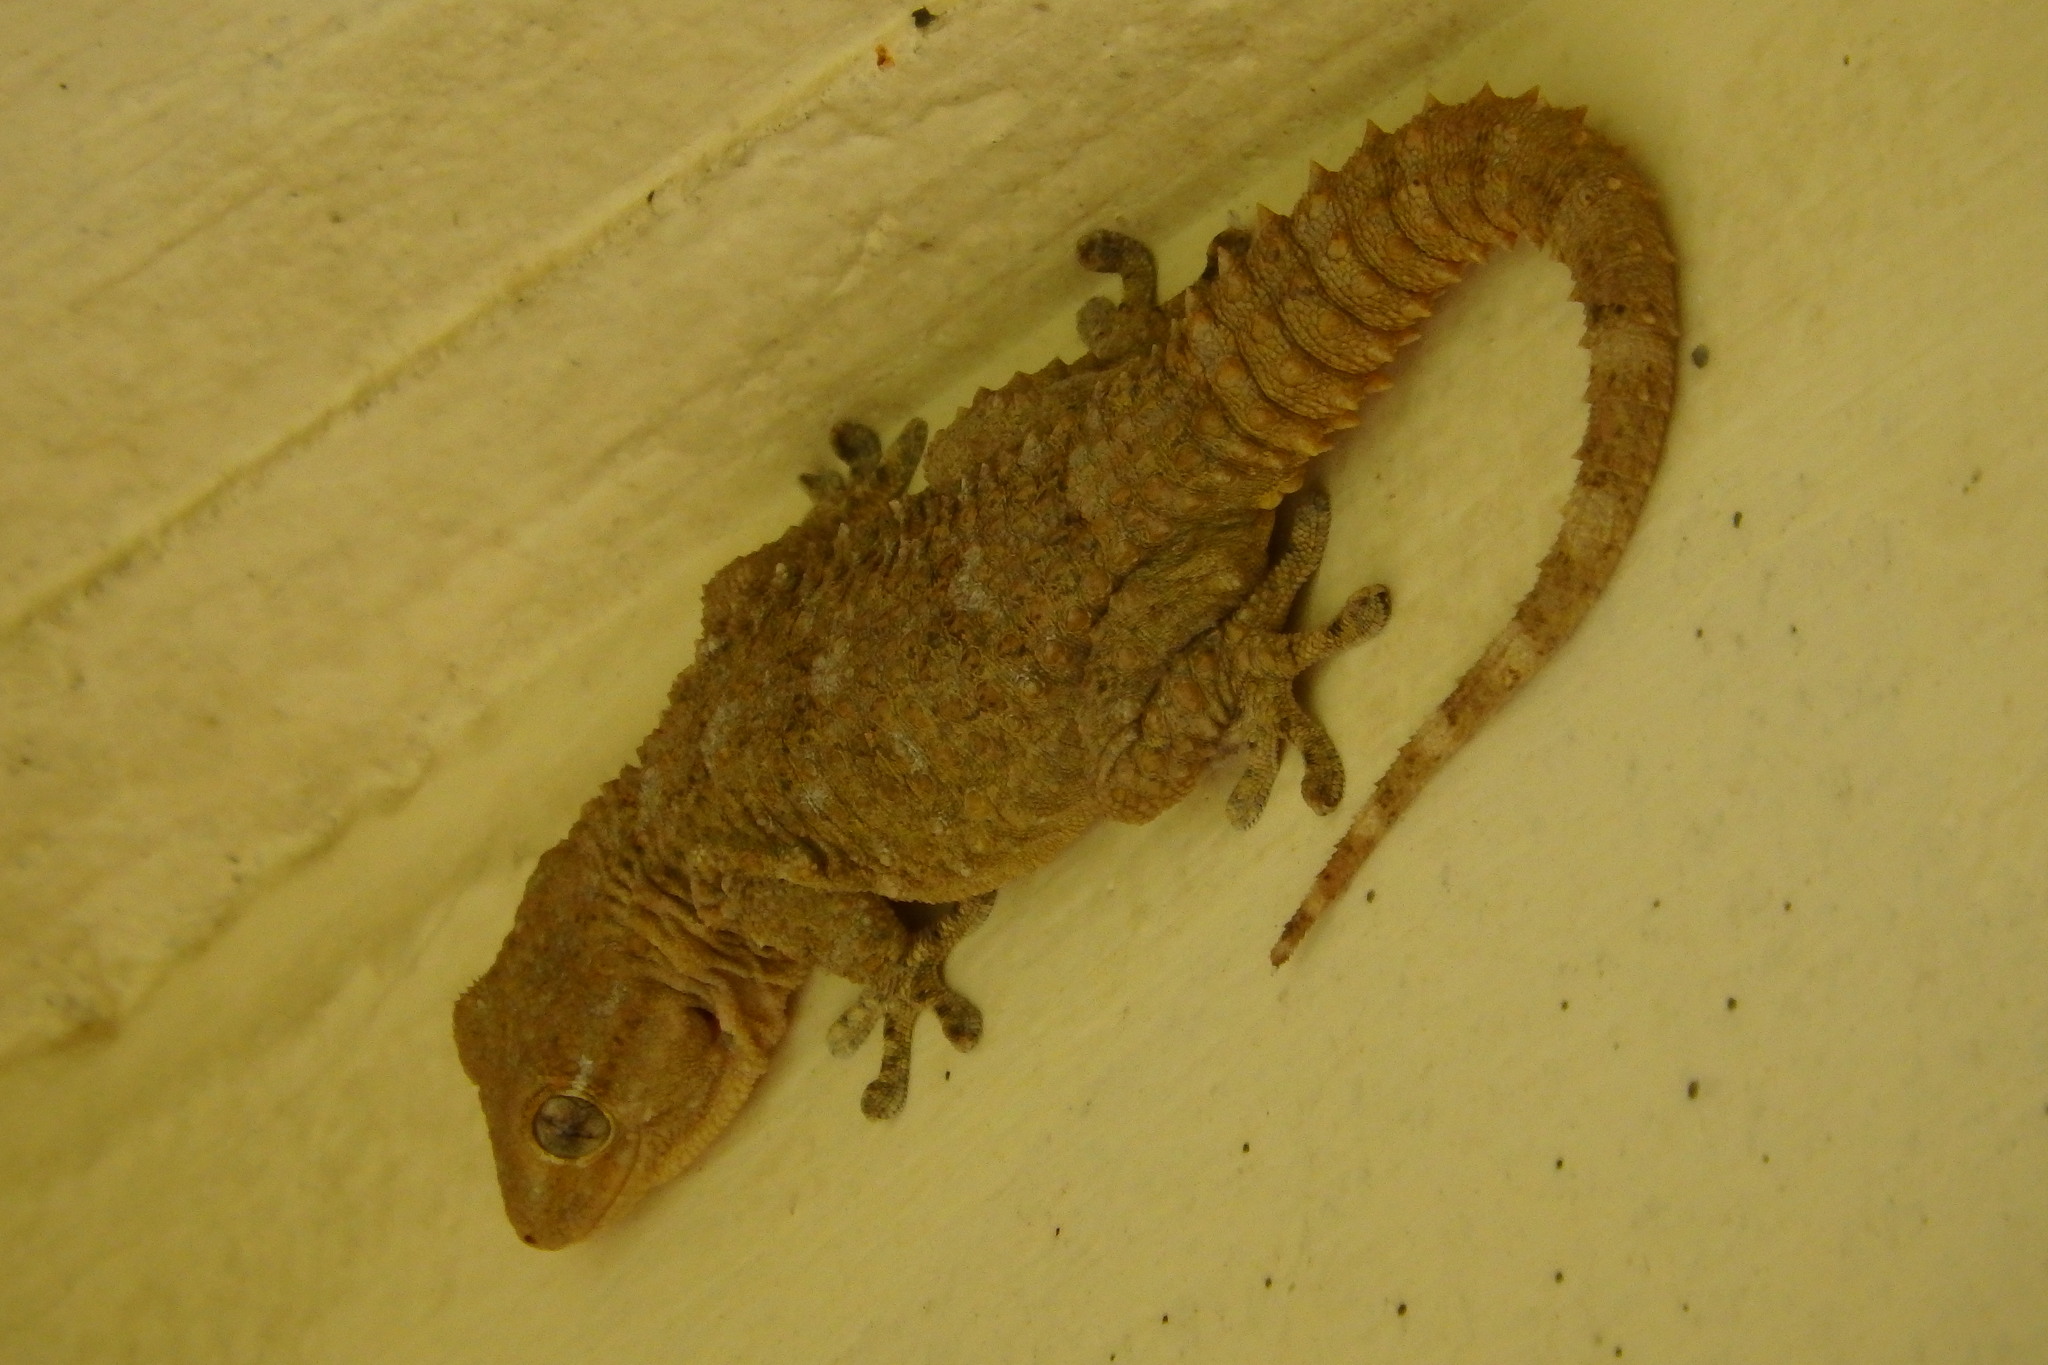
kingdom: Animalia
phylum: Chordata
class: Squamata
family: Phyllodactylidae
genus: Tarentola
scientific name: Tarentola mauritanica
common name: Moorish gecko
